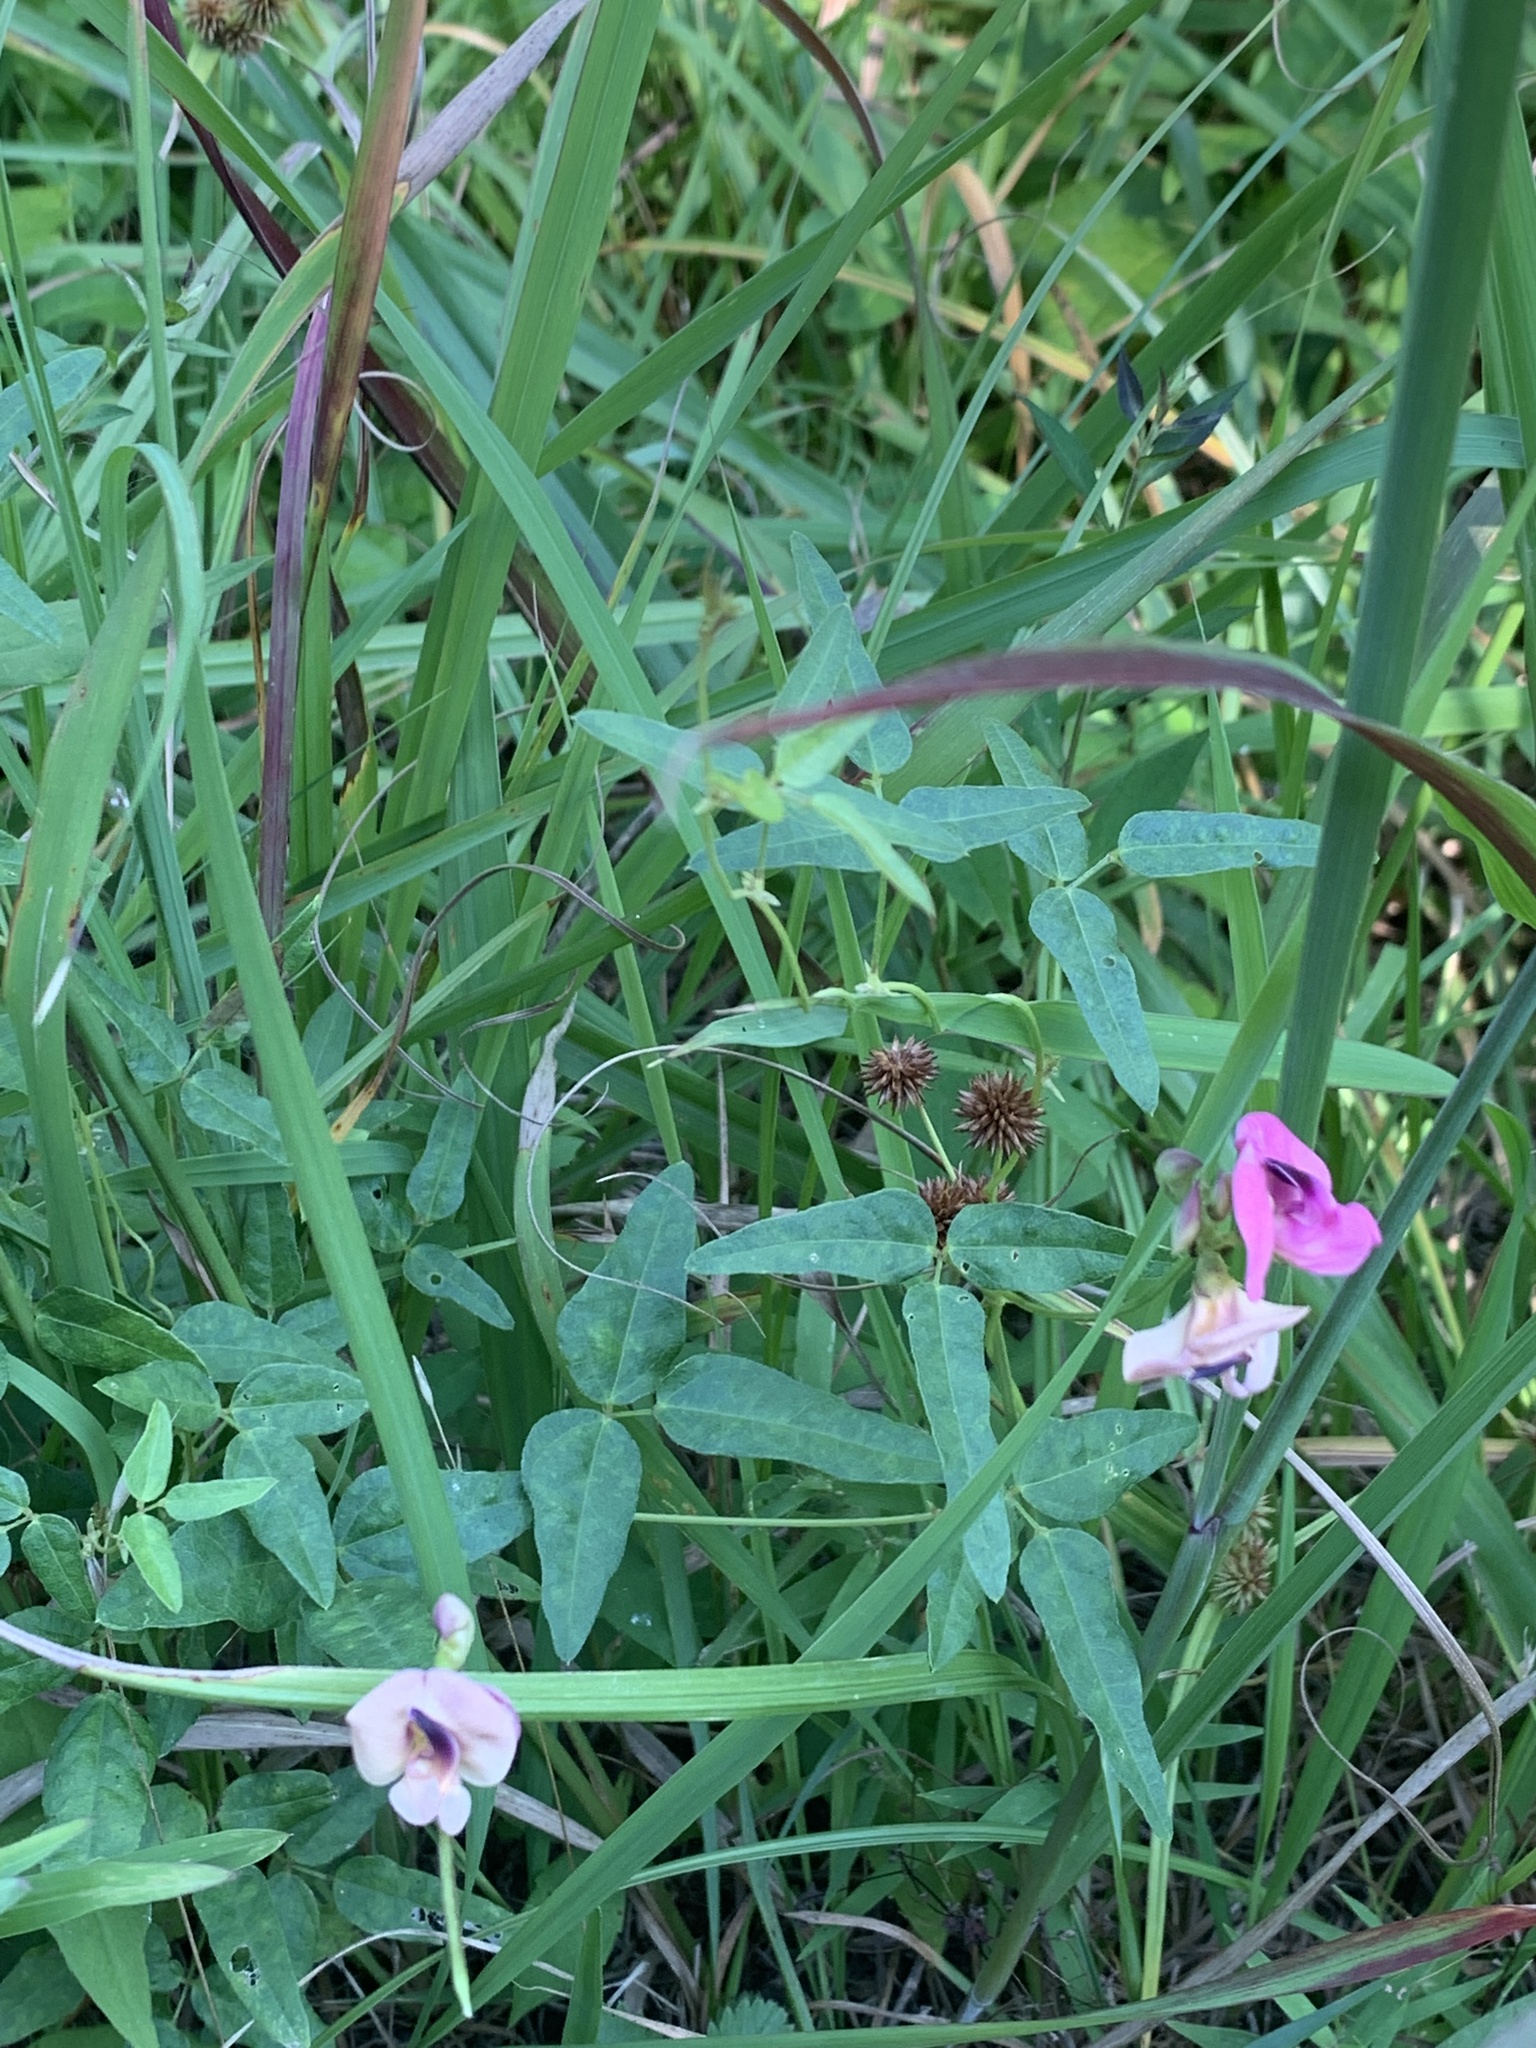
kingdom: Plantae
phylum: Tracheophyta
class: Magnoliopsida
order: Fabales
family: Fabaceae
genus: Strophostyles
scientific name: Strophostyles umbellata
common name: Perennial wild bean
